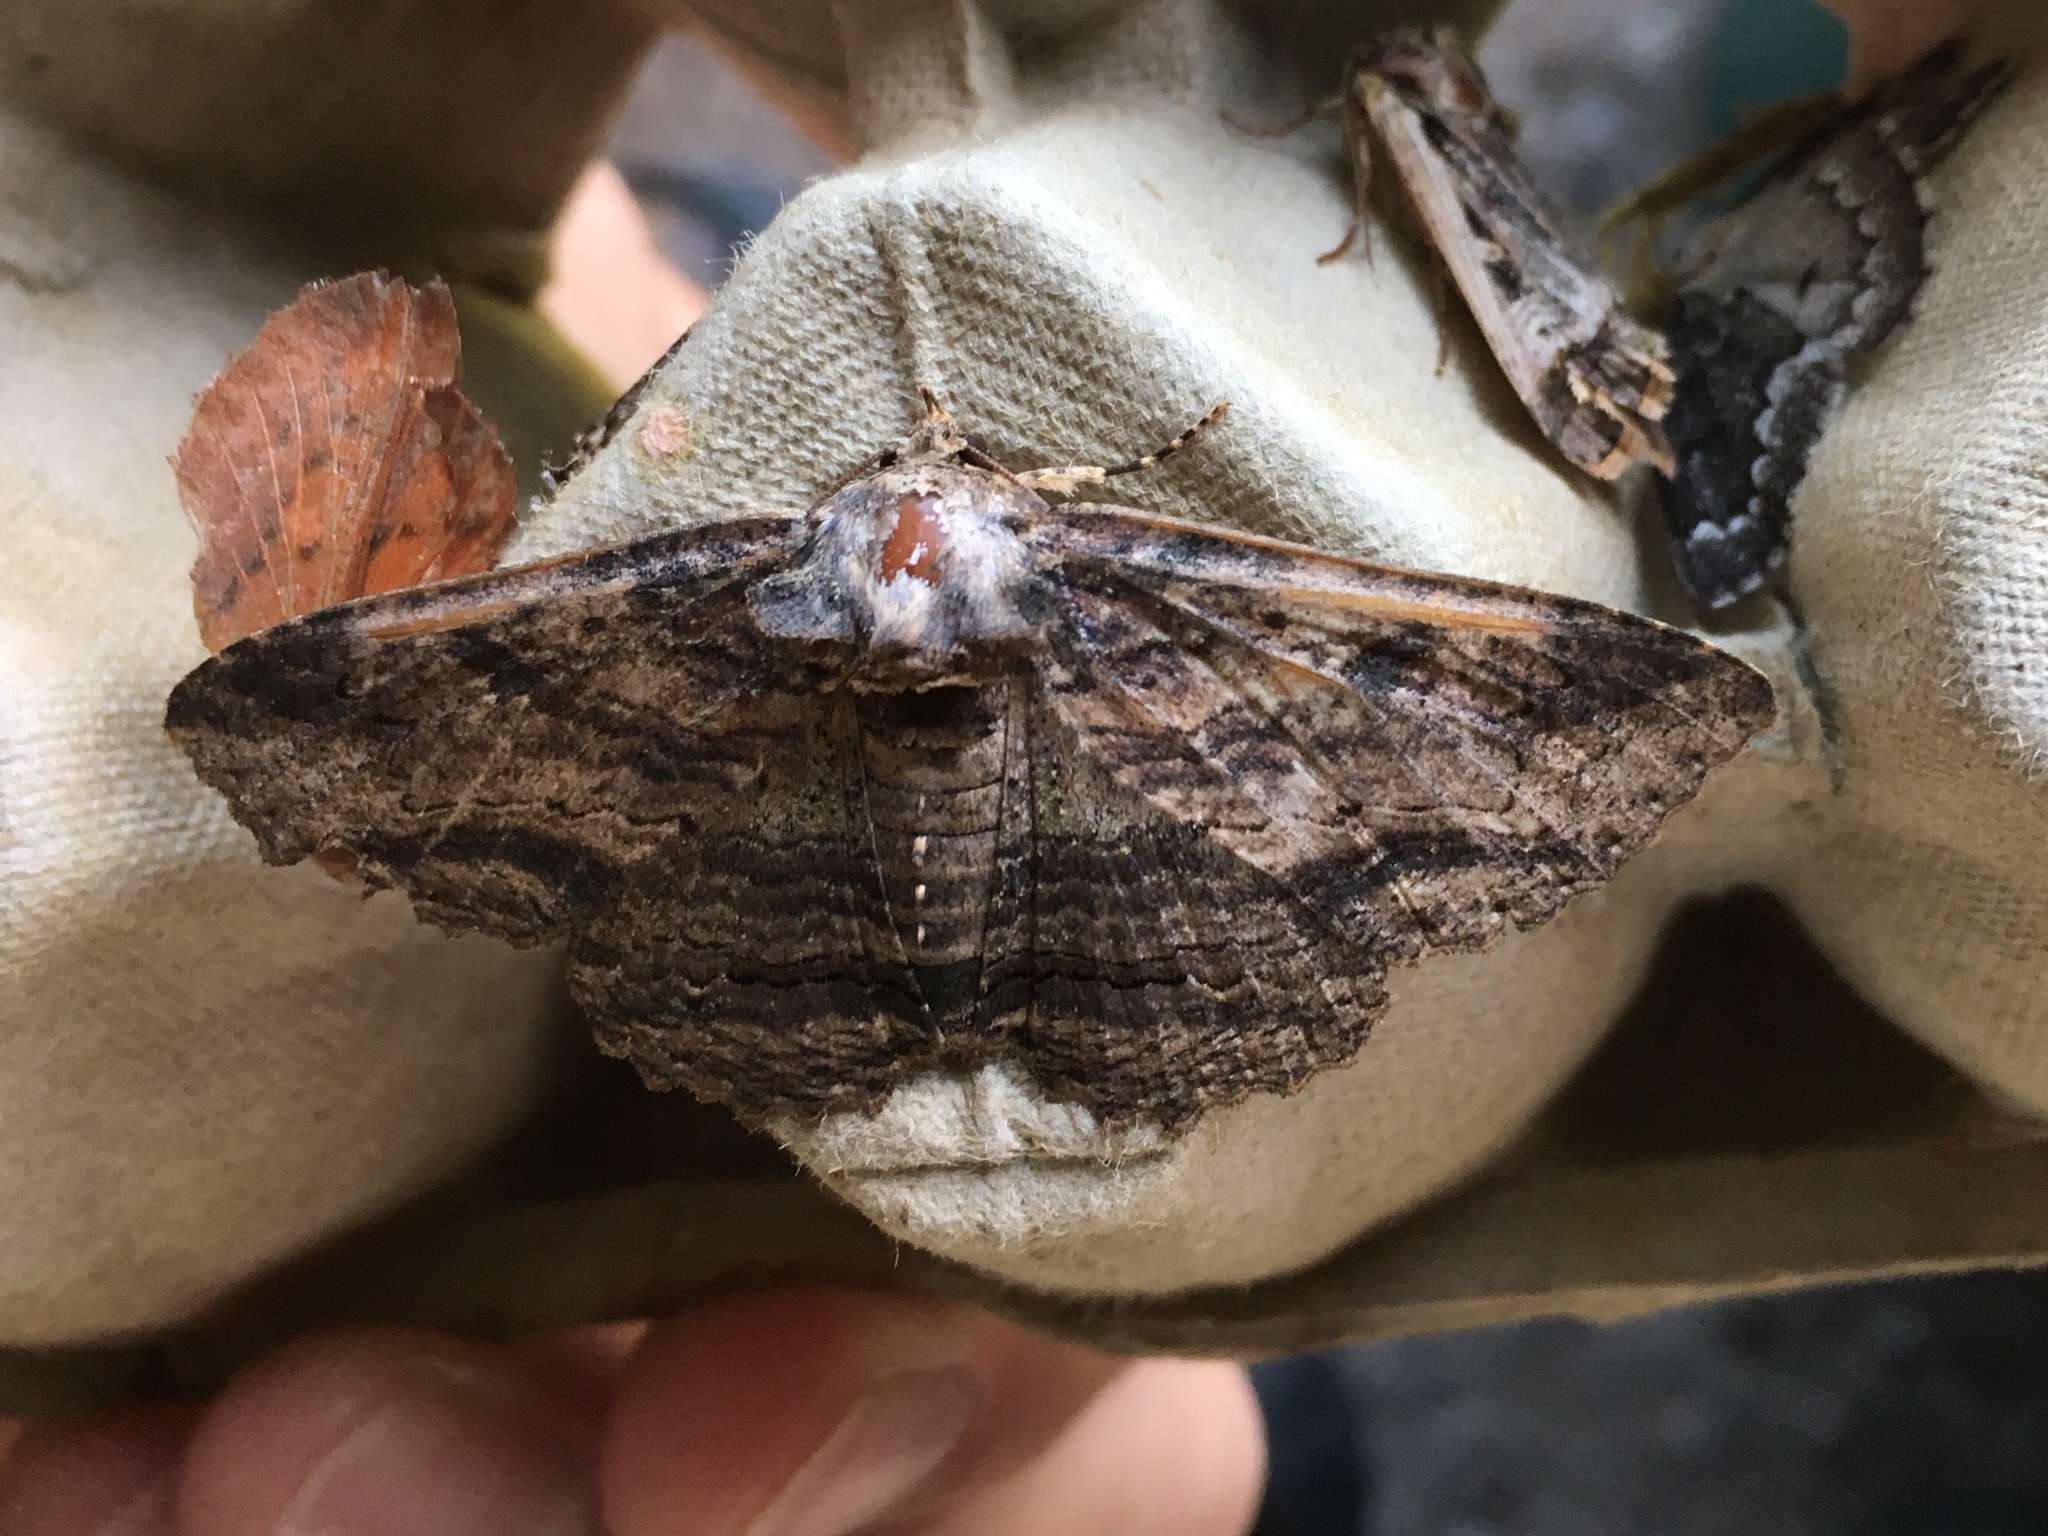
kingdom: Animalia
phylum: Arthropoda
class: Insecta
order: Lepidoptera
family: Erebidae
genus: Zale
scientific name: Zale lunata
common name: Lunate zale moth
